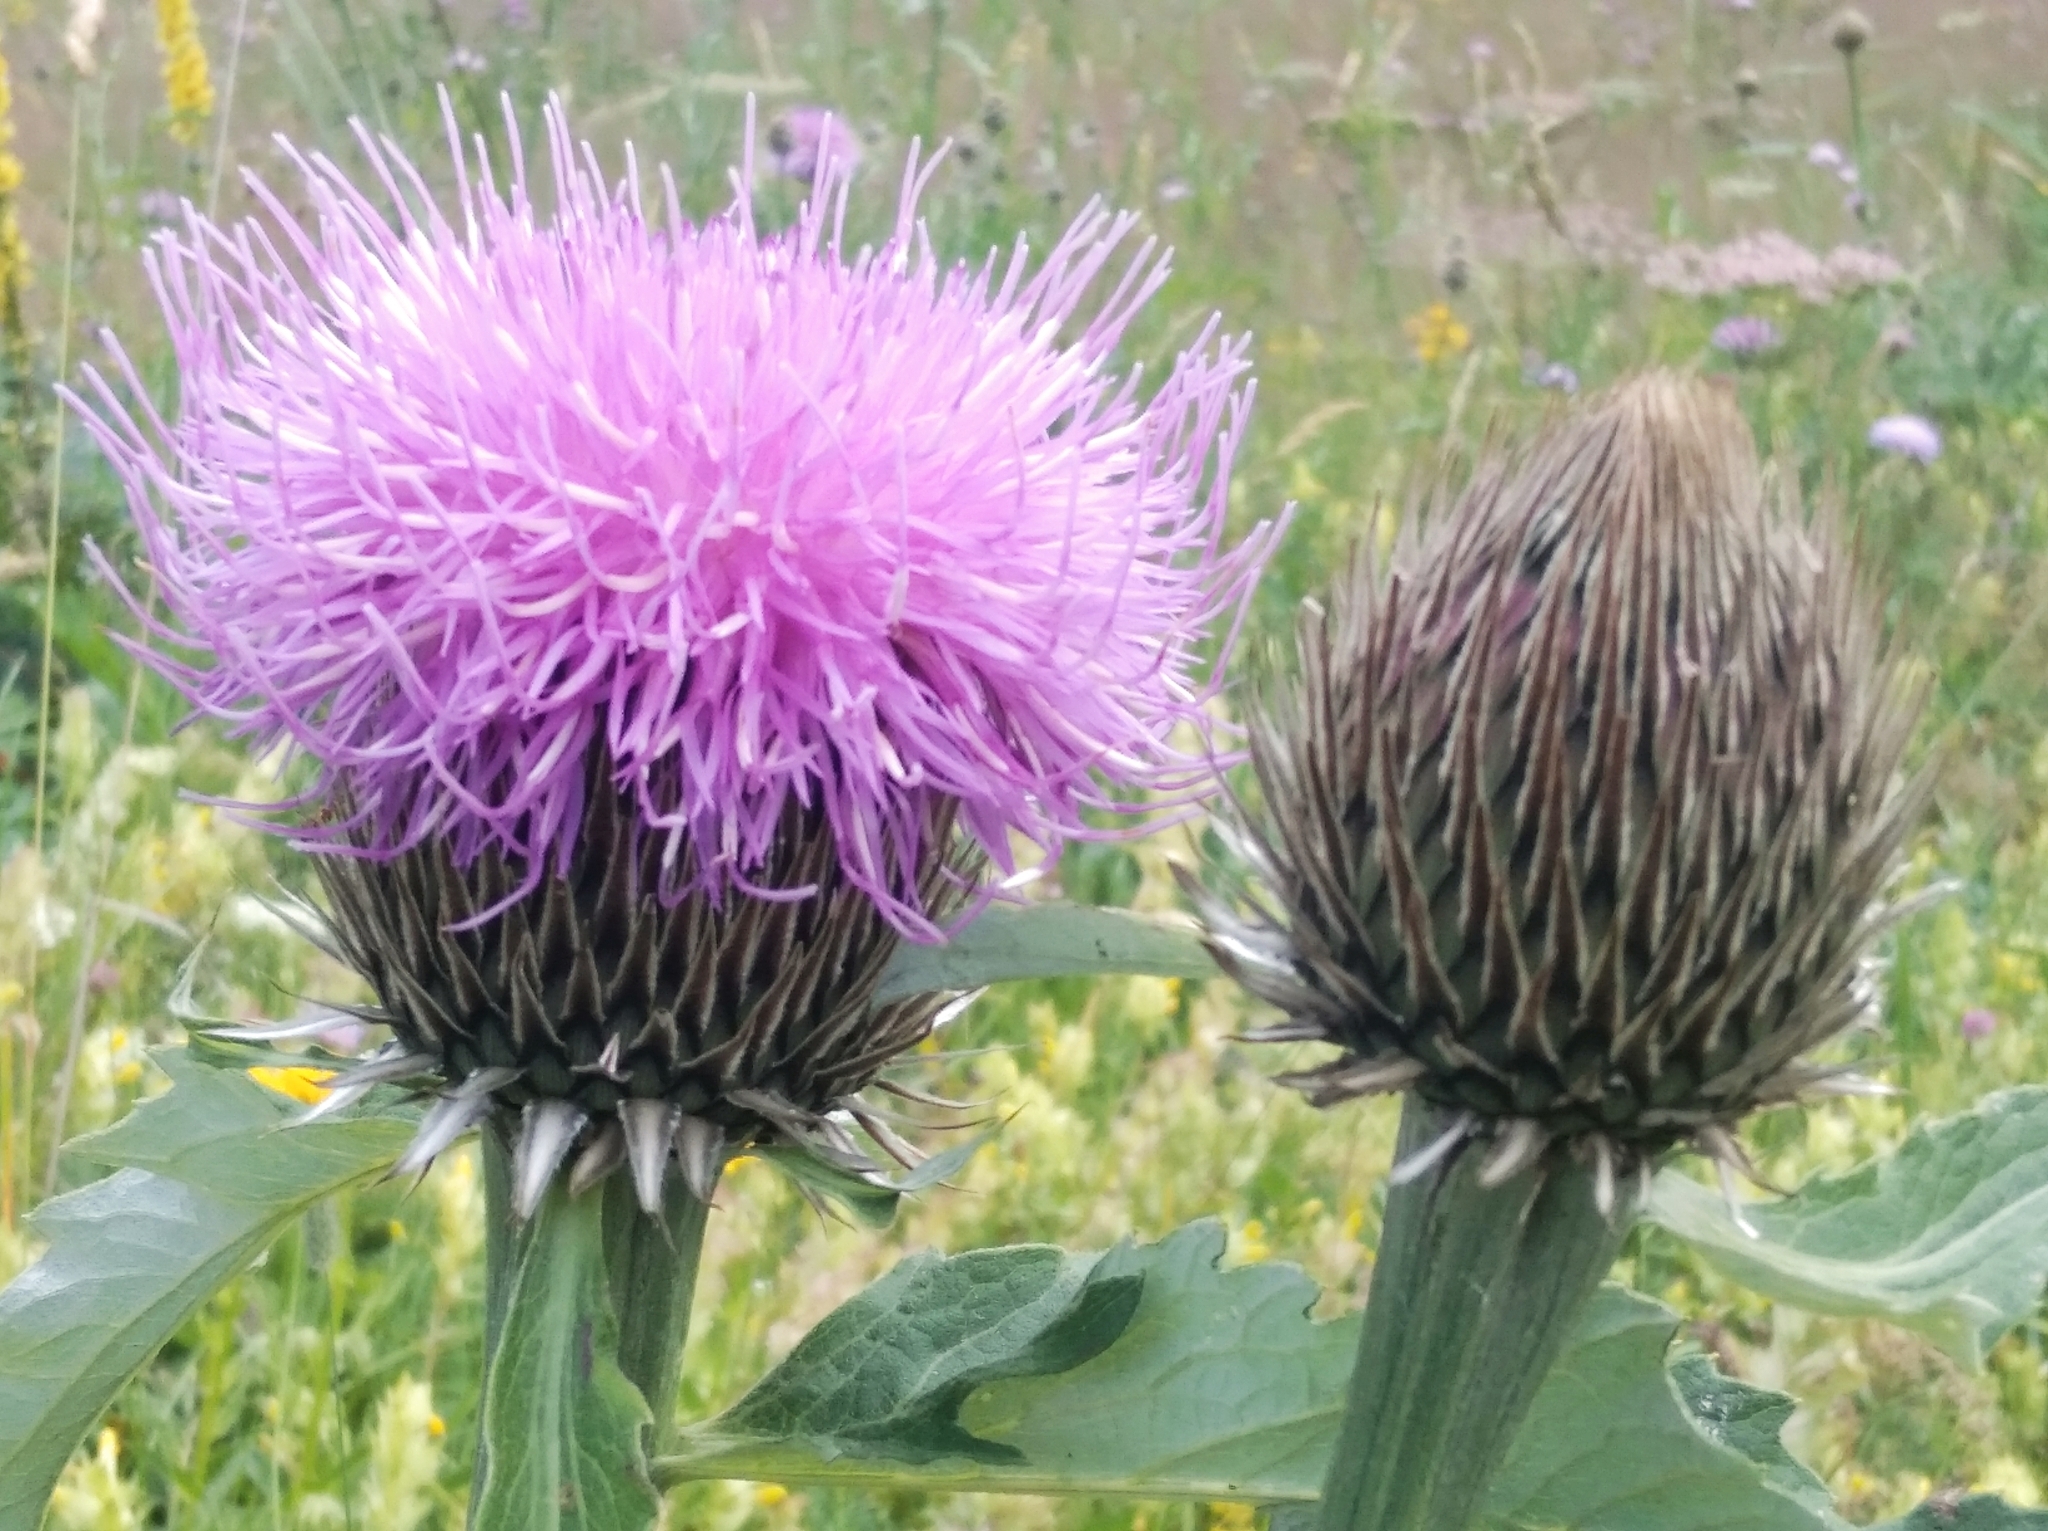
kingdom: Plantae
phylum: Tracheophyta
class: Magnoliopsida
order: Asterales
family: Asteraceae
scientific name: Asteraceae
